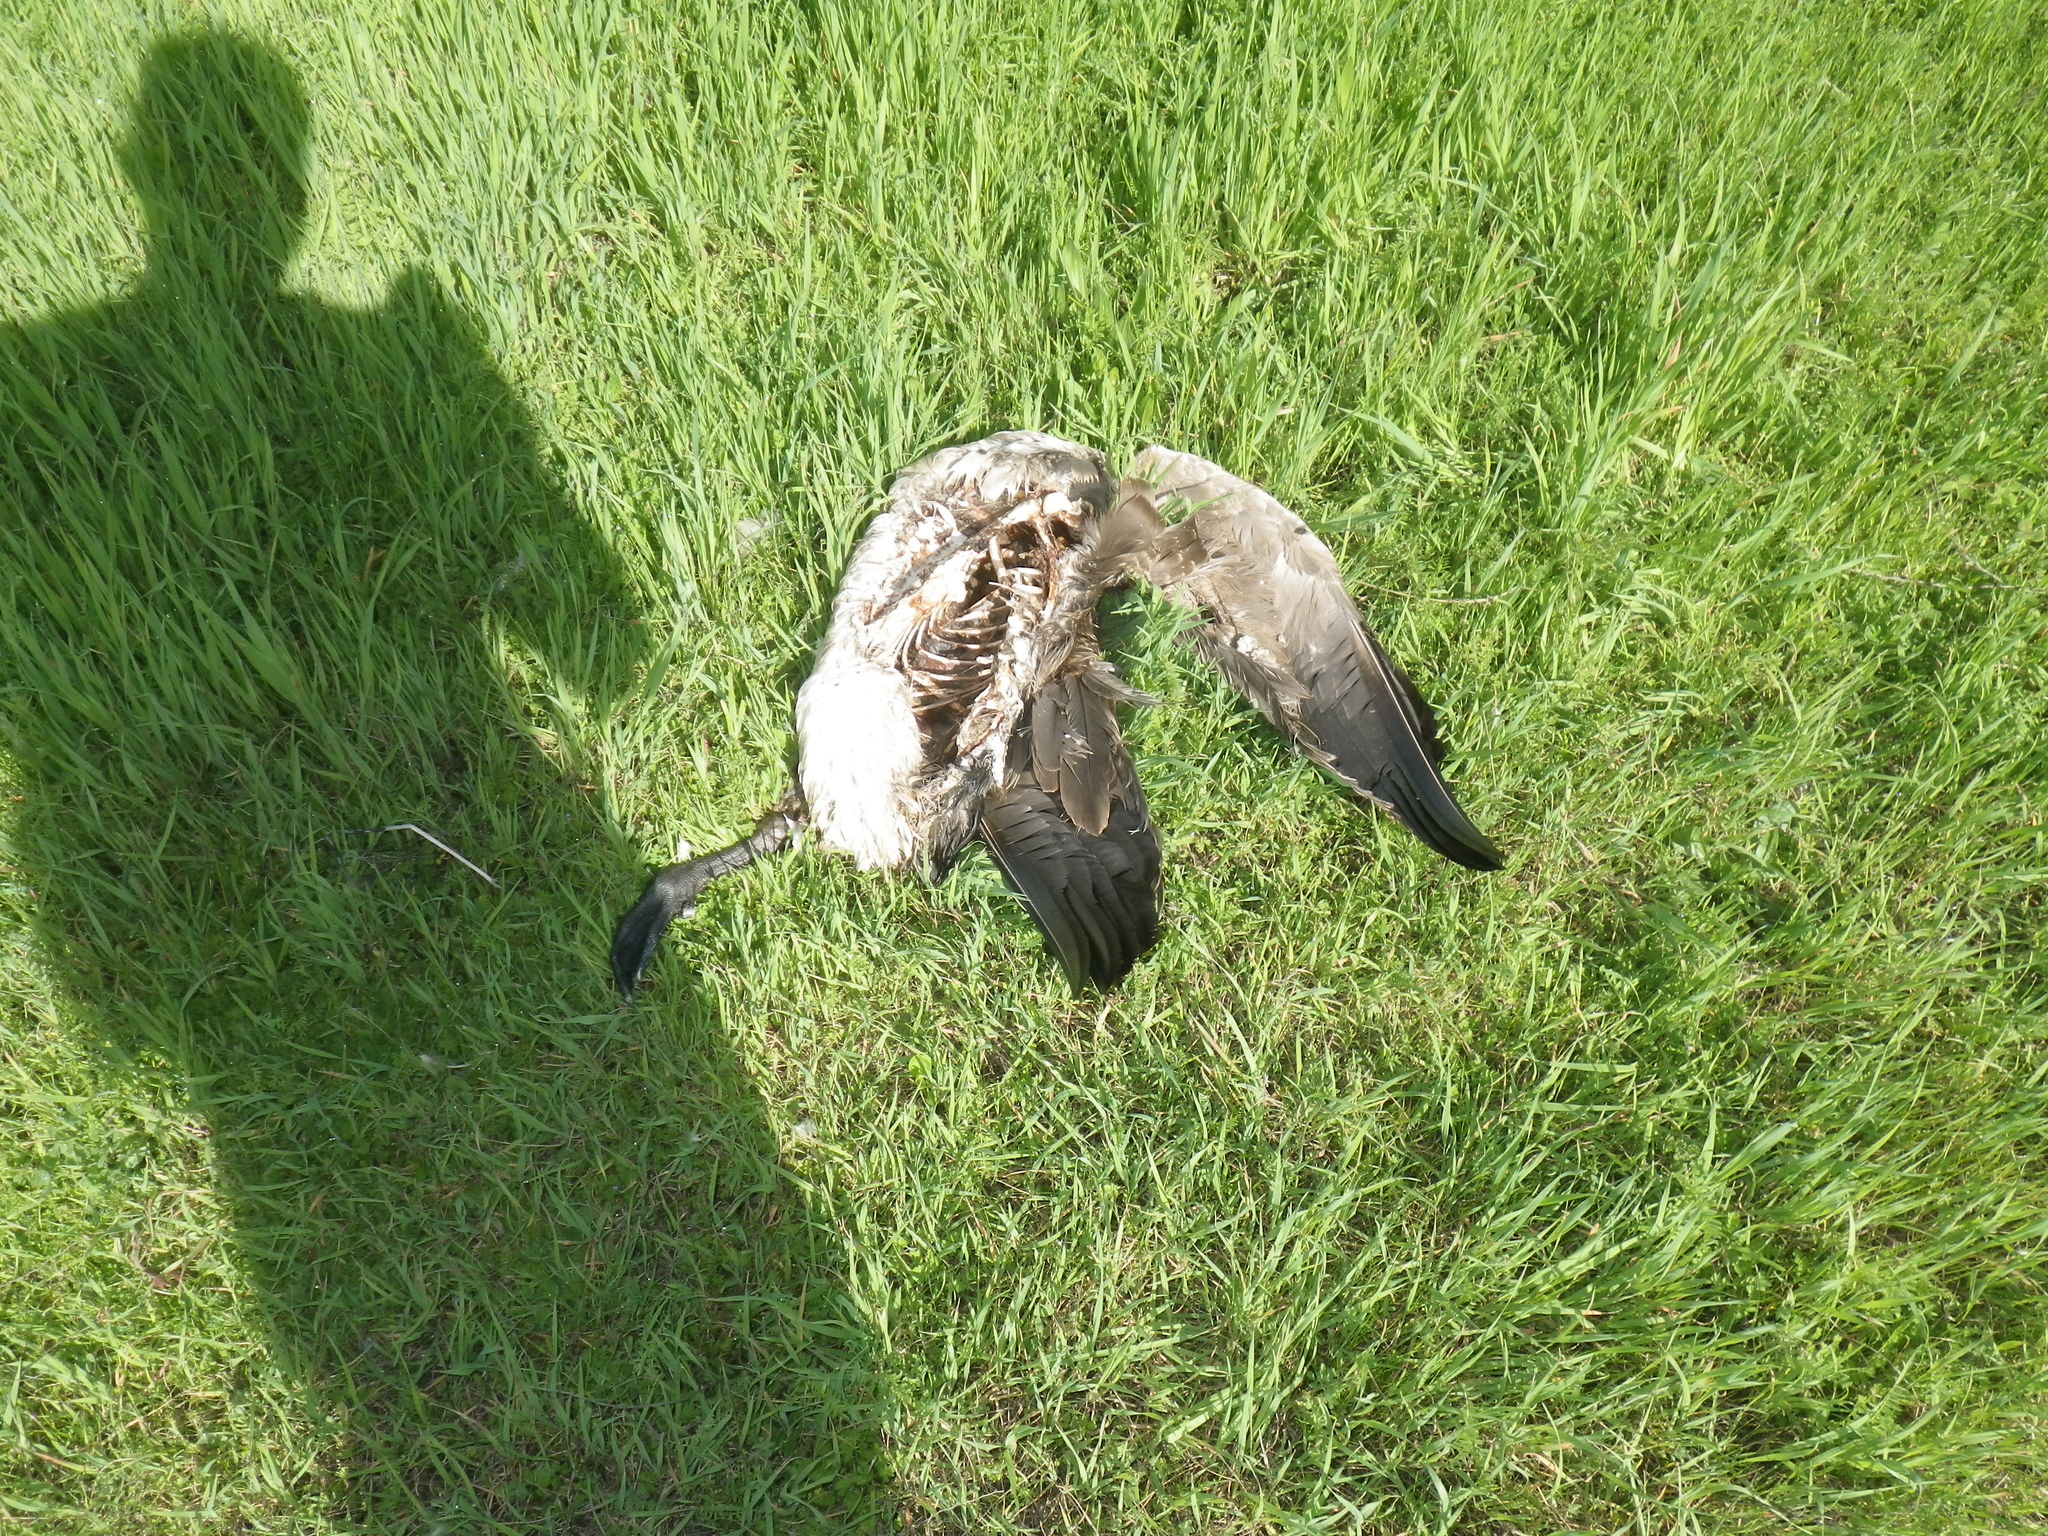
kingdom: Animalia
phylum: Chordata
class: Aves
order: Anseriformes
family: Anatidae
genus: Branta
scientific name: Branta canadensis
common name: Canada goose
